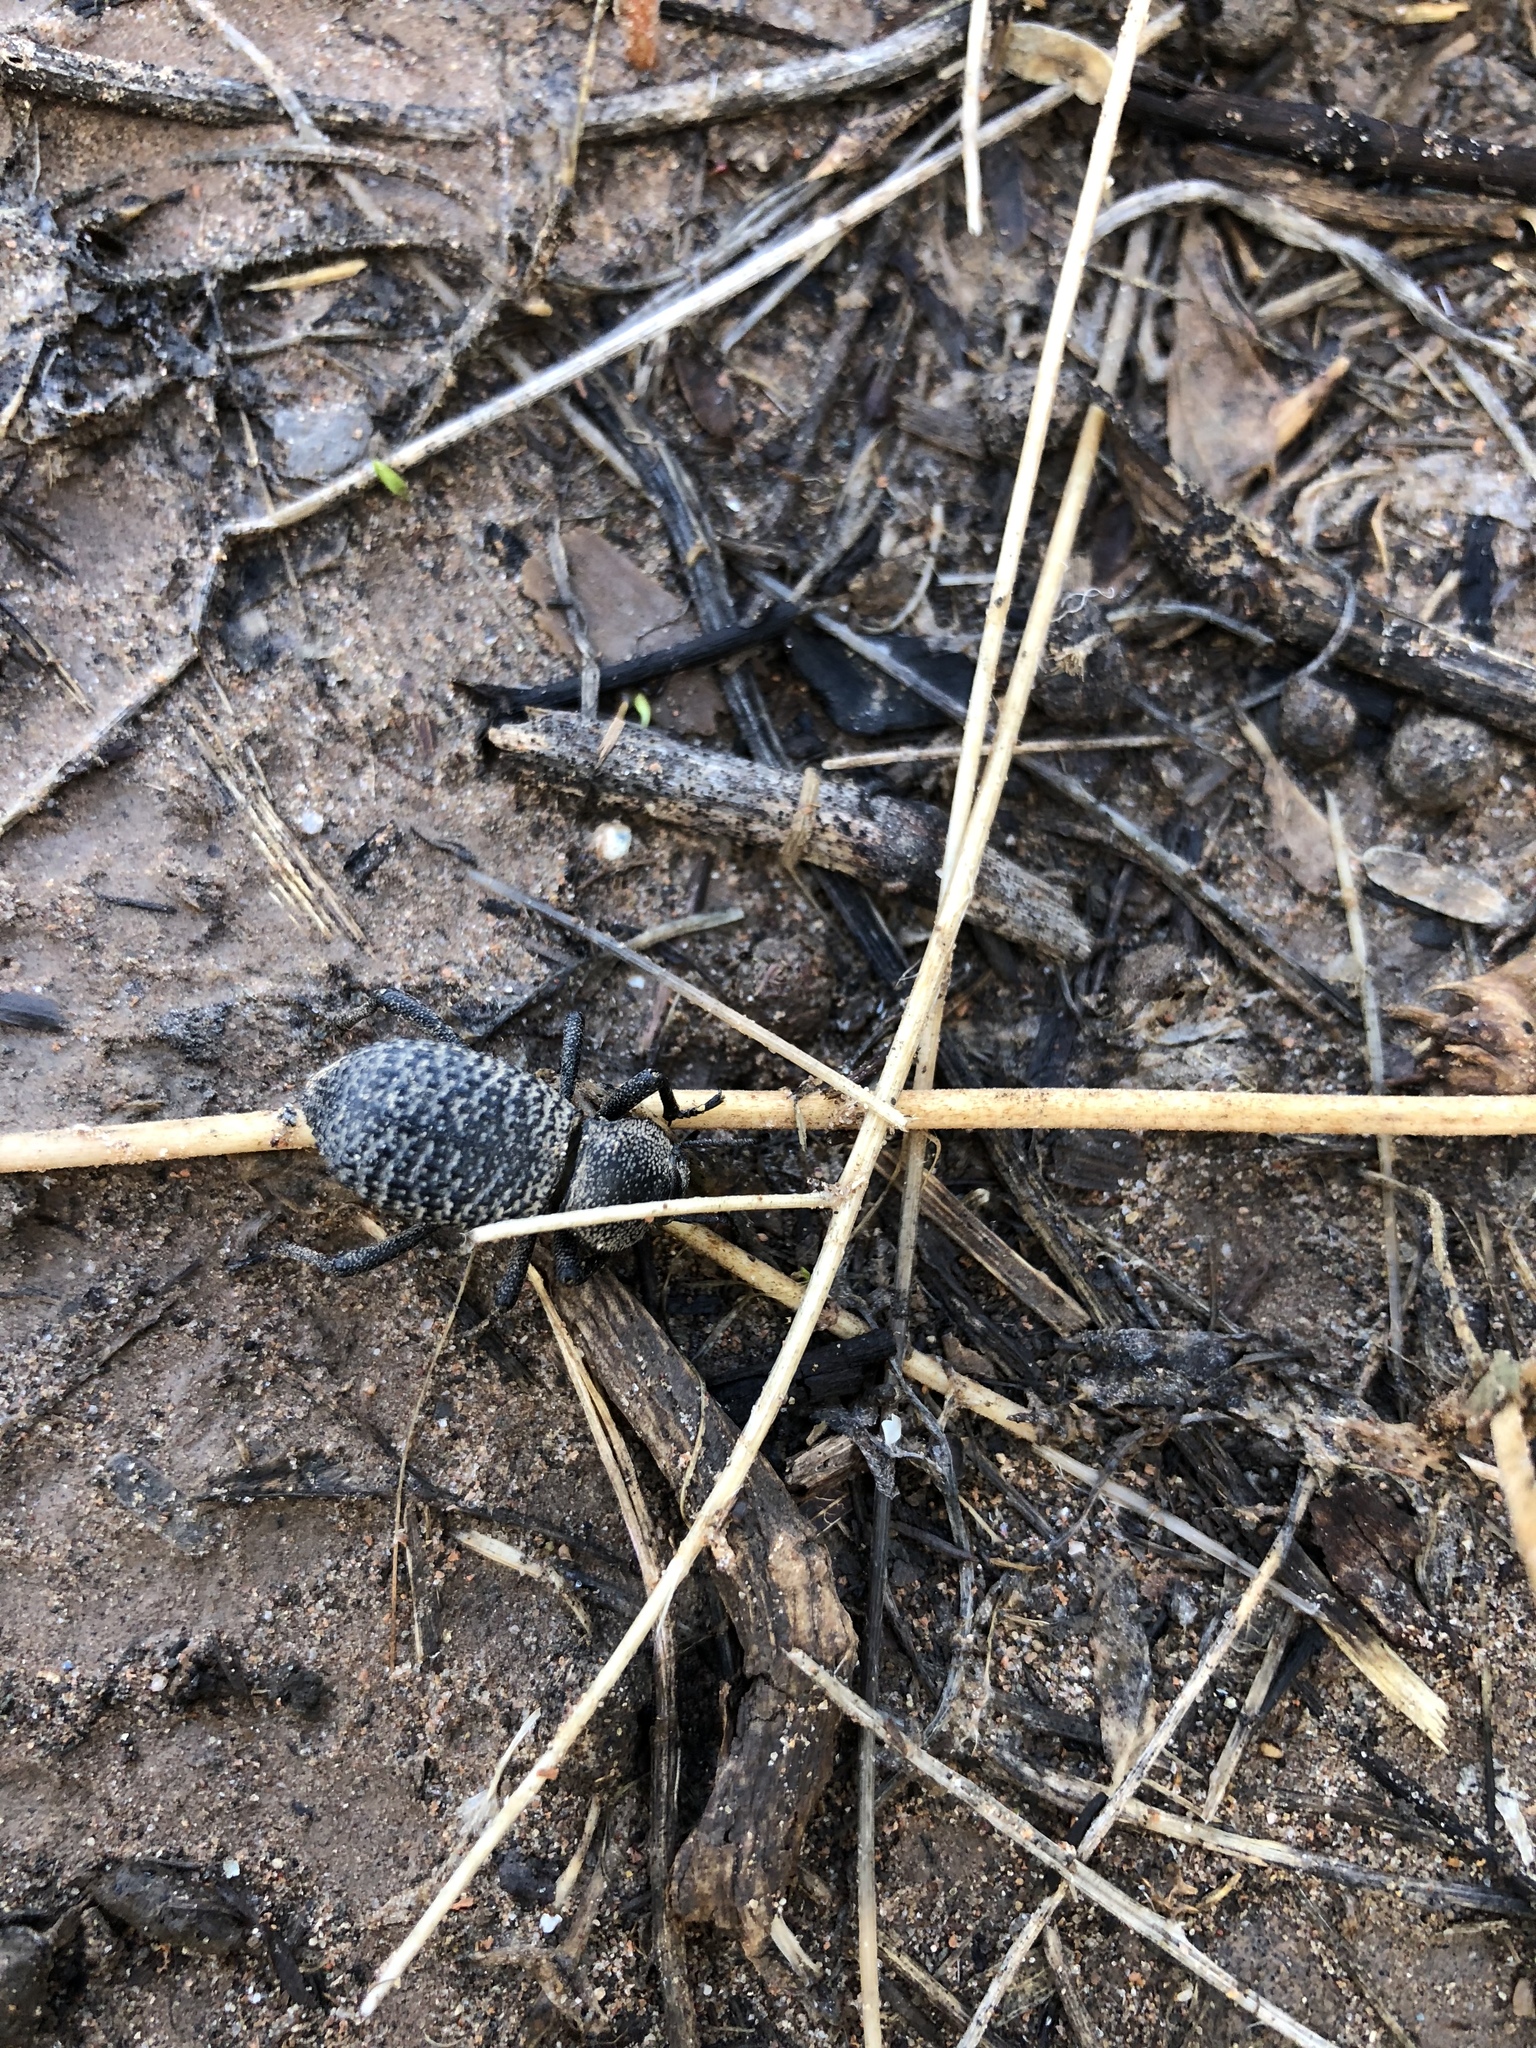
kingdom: Animalia
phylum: Arthropoda
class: Insecta
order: Coleoptera
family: Tenebrionidae
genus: Cryptoglossa
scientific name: Cryptoglossa variolosa
